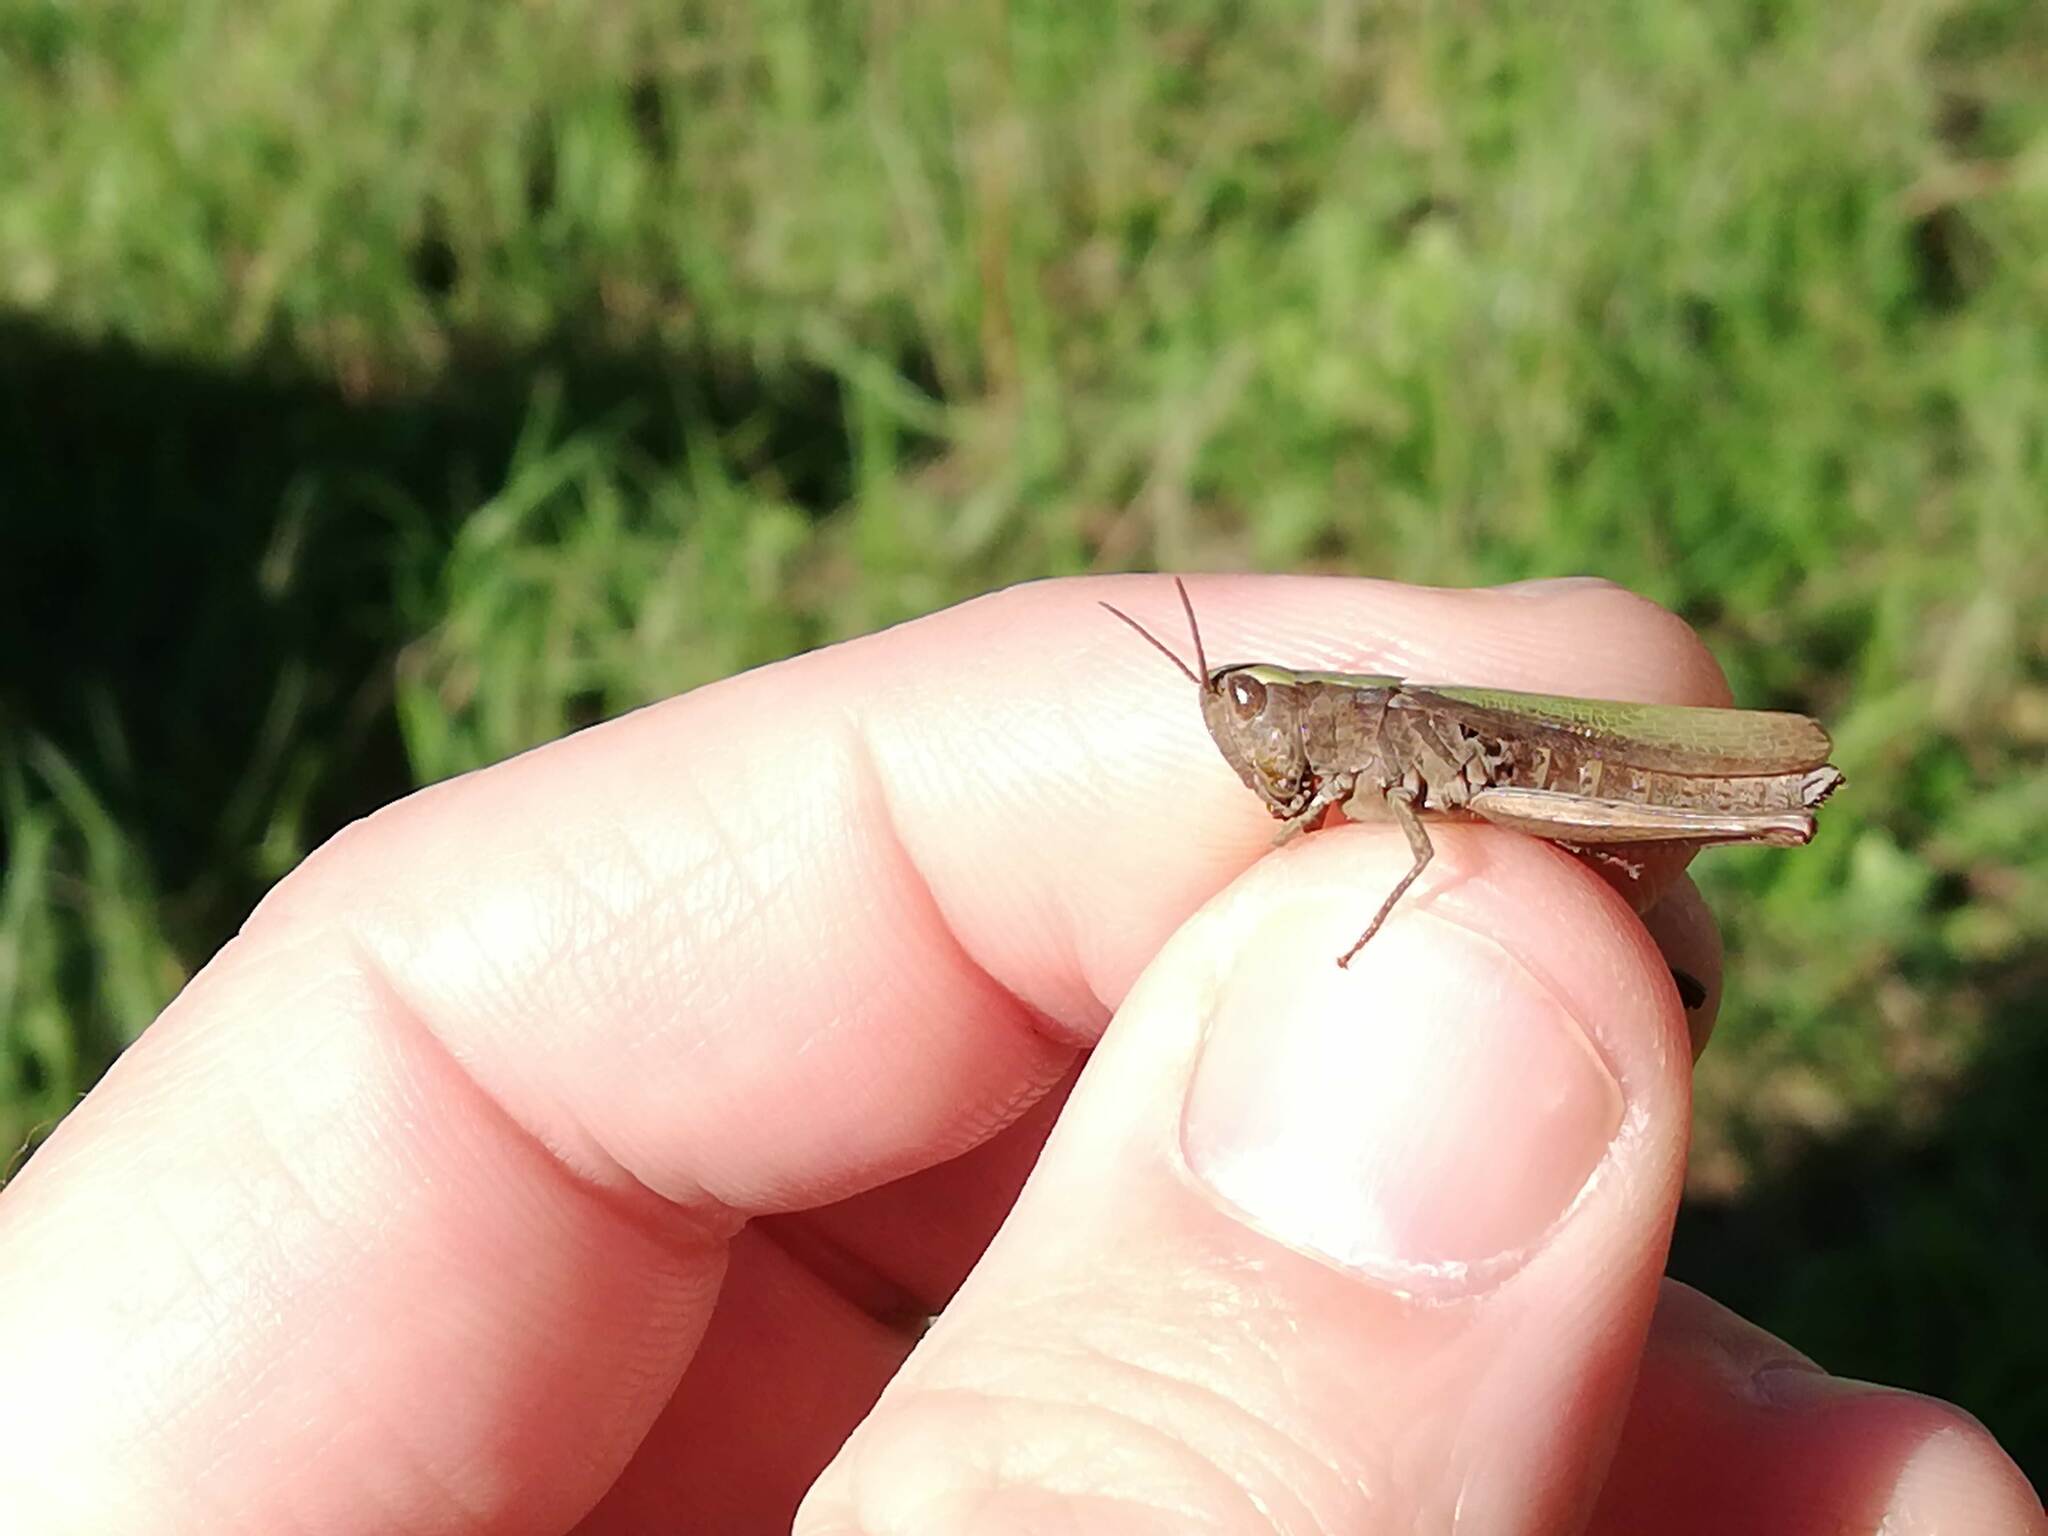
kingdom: Animalia
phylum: Arthropoda
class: Insecta
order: Orthoptera
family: Acrididae
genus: Chorthippus
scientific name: Chorthippus dorsatus
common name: Steppe grasshopper
